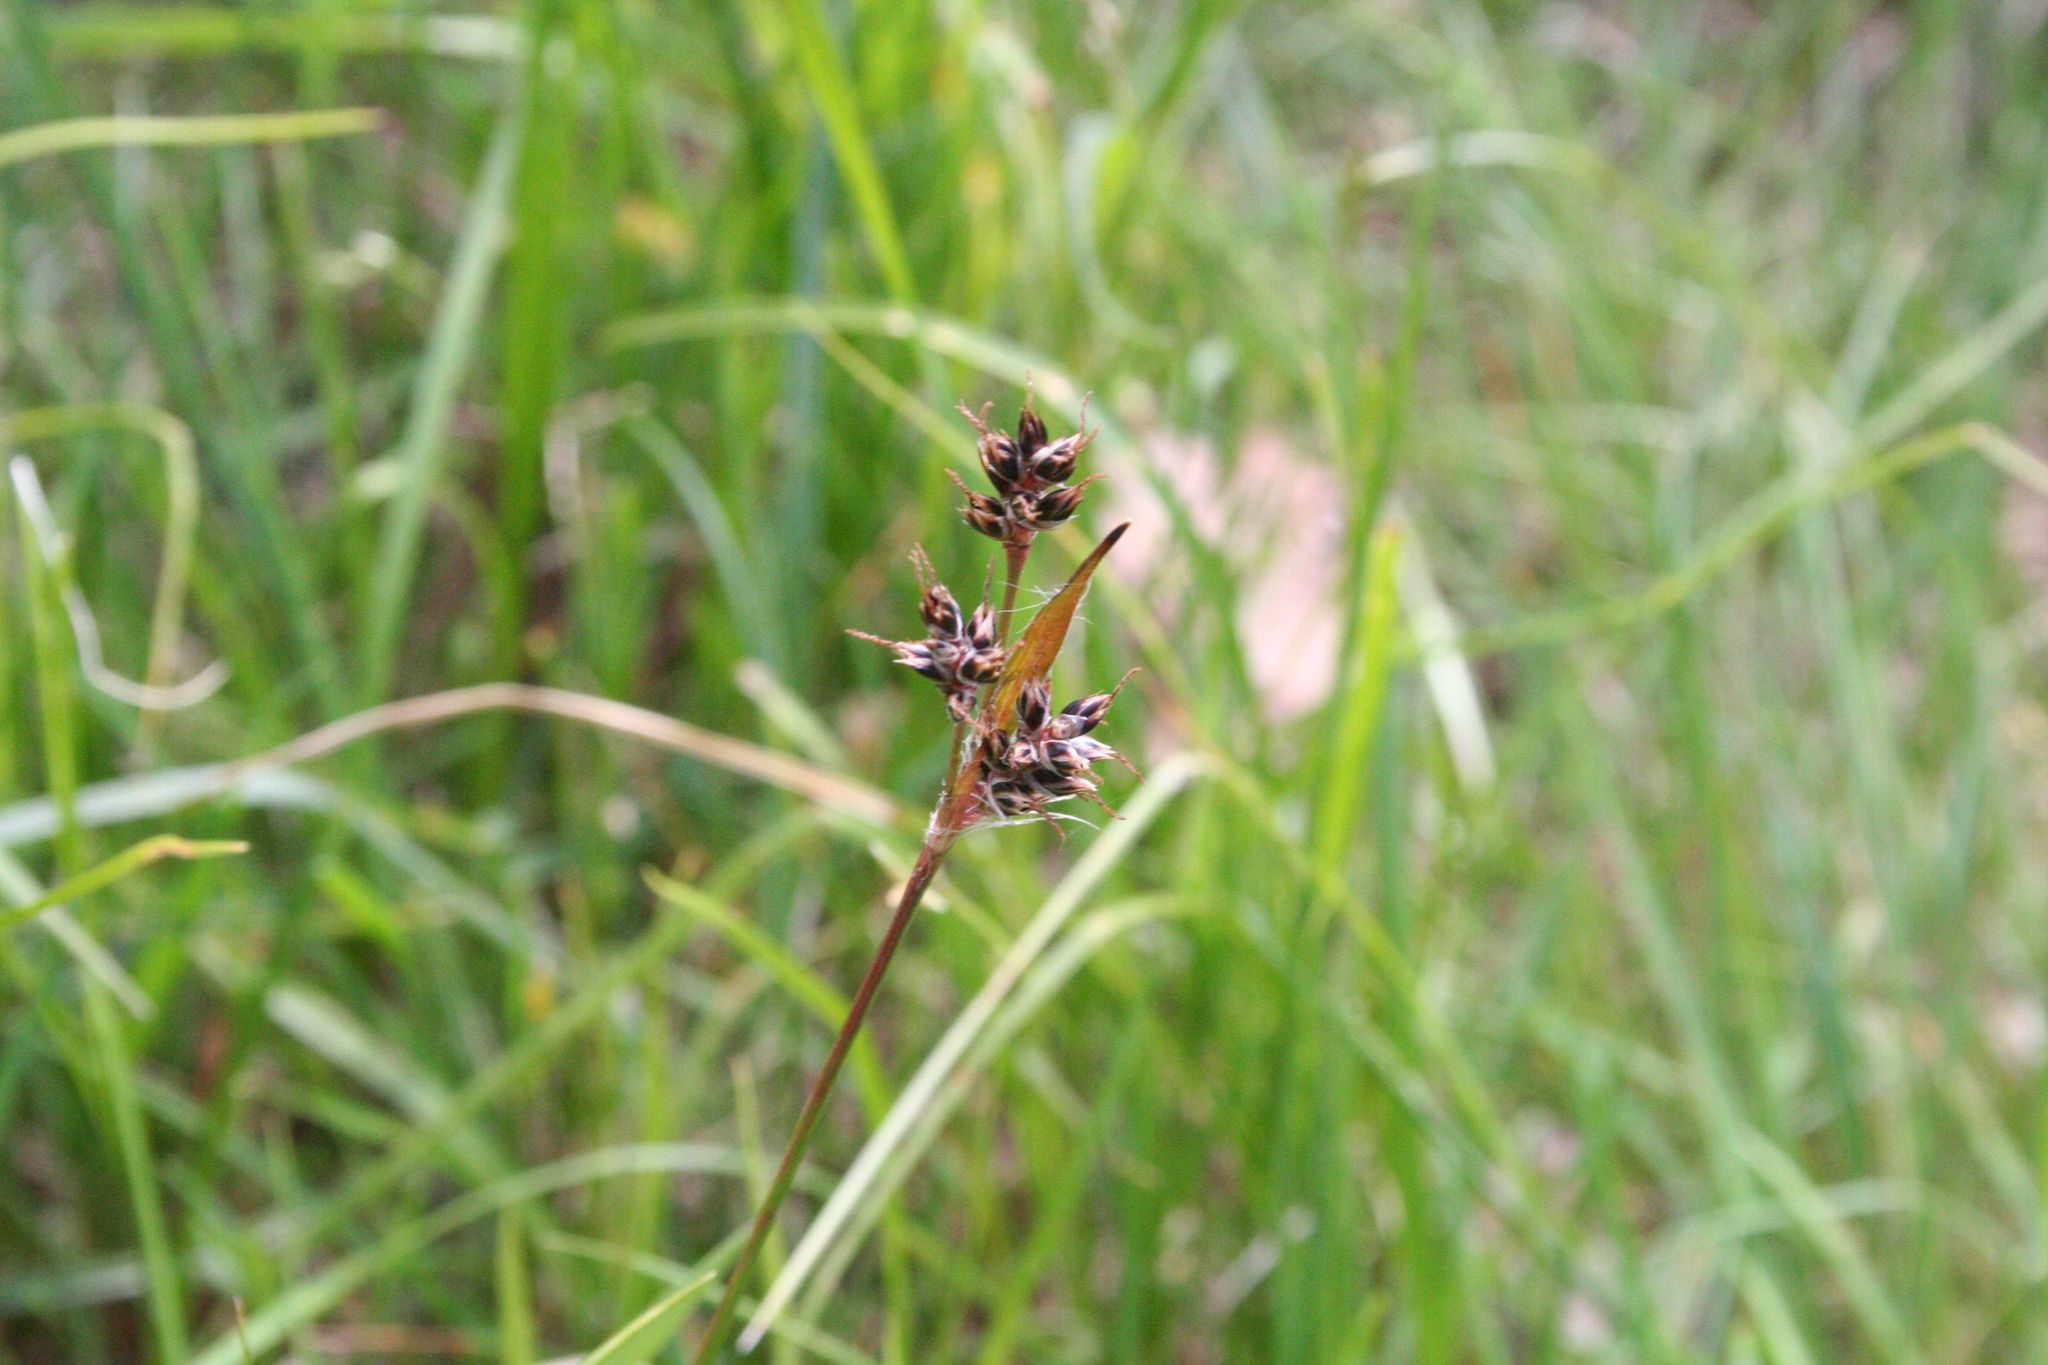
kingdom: Plantae
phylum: Tracheophyta
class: Liliopsida
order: Poales
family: Juncaceae
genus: Luzula
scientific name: Luzula campestris
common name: Field wood-rush
